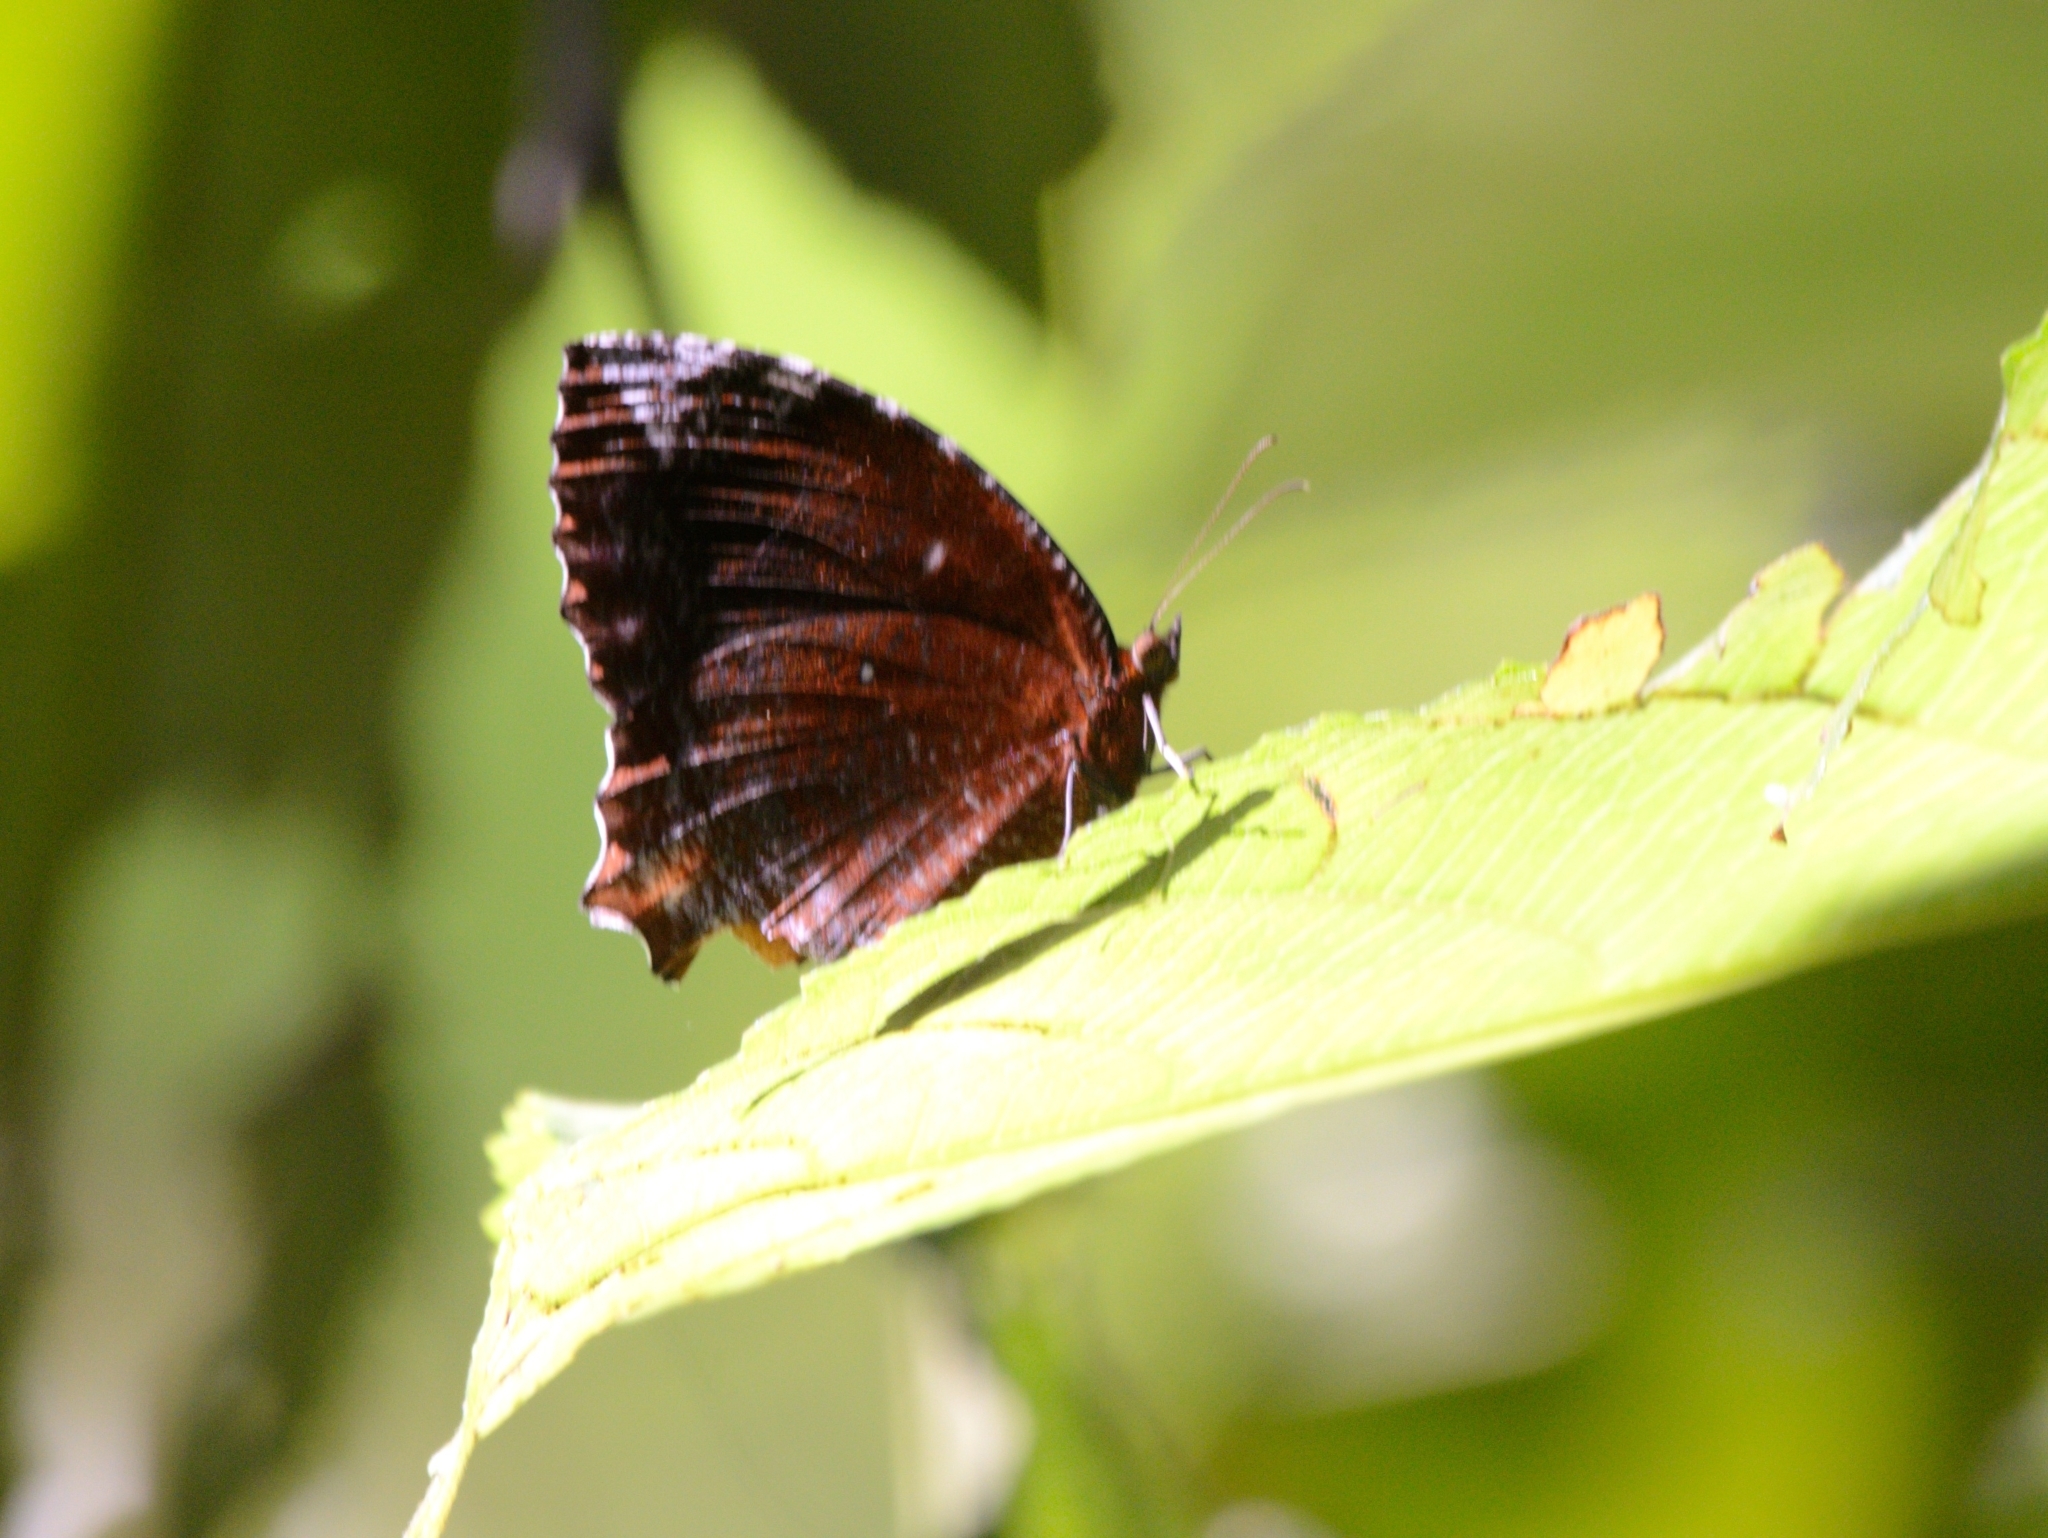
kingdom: Animalia
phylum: Arthropoda
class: Insecta
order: Lepidoptera
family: Nymphalidae
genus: Elymnias
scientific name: Elymnias hypermnestra
